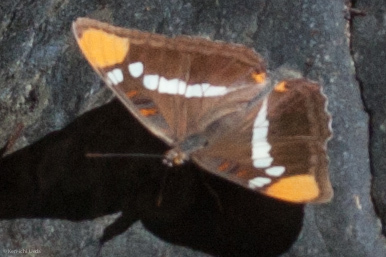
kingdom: Animalia
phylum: Arthropoda
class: Insecta
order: Lepidoptera
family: Nymphalidae
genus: Limenitis
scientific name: Limenitis bredowii
